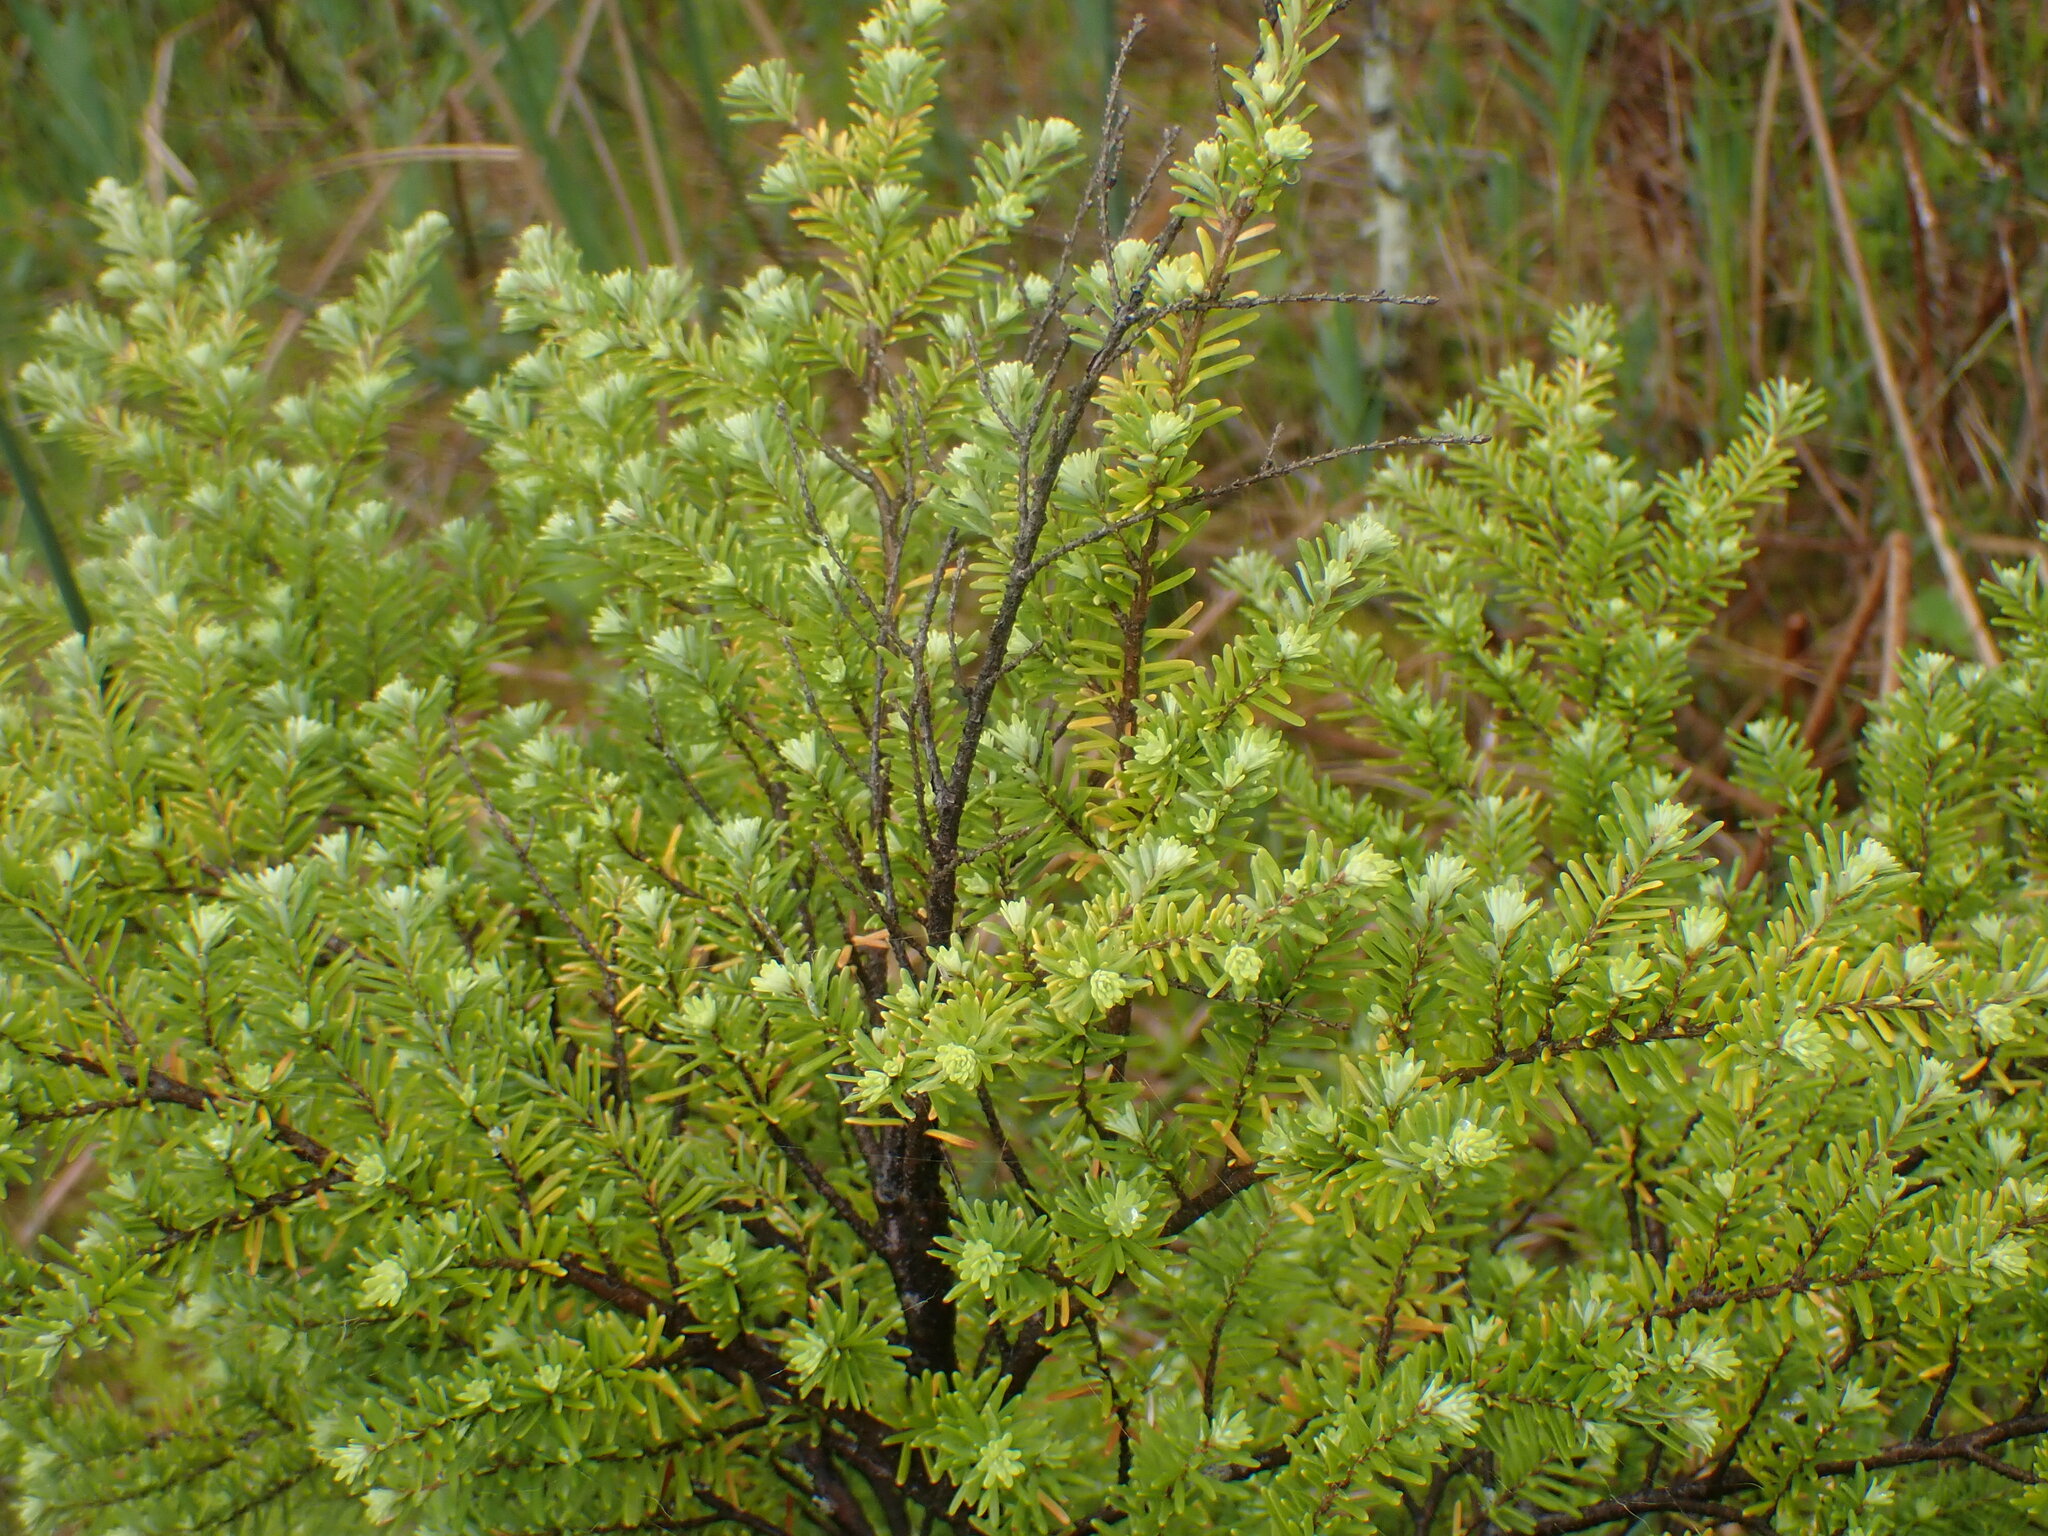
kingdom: Plantae
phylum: Tracheophyta
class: Pinopsida
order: Pinales
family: Pinaceae
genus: Tsuga
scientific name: Tsuga heterophylla
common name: Western hemlock
